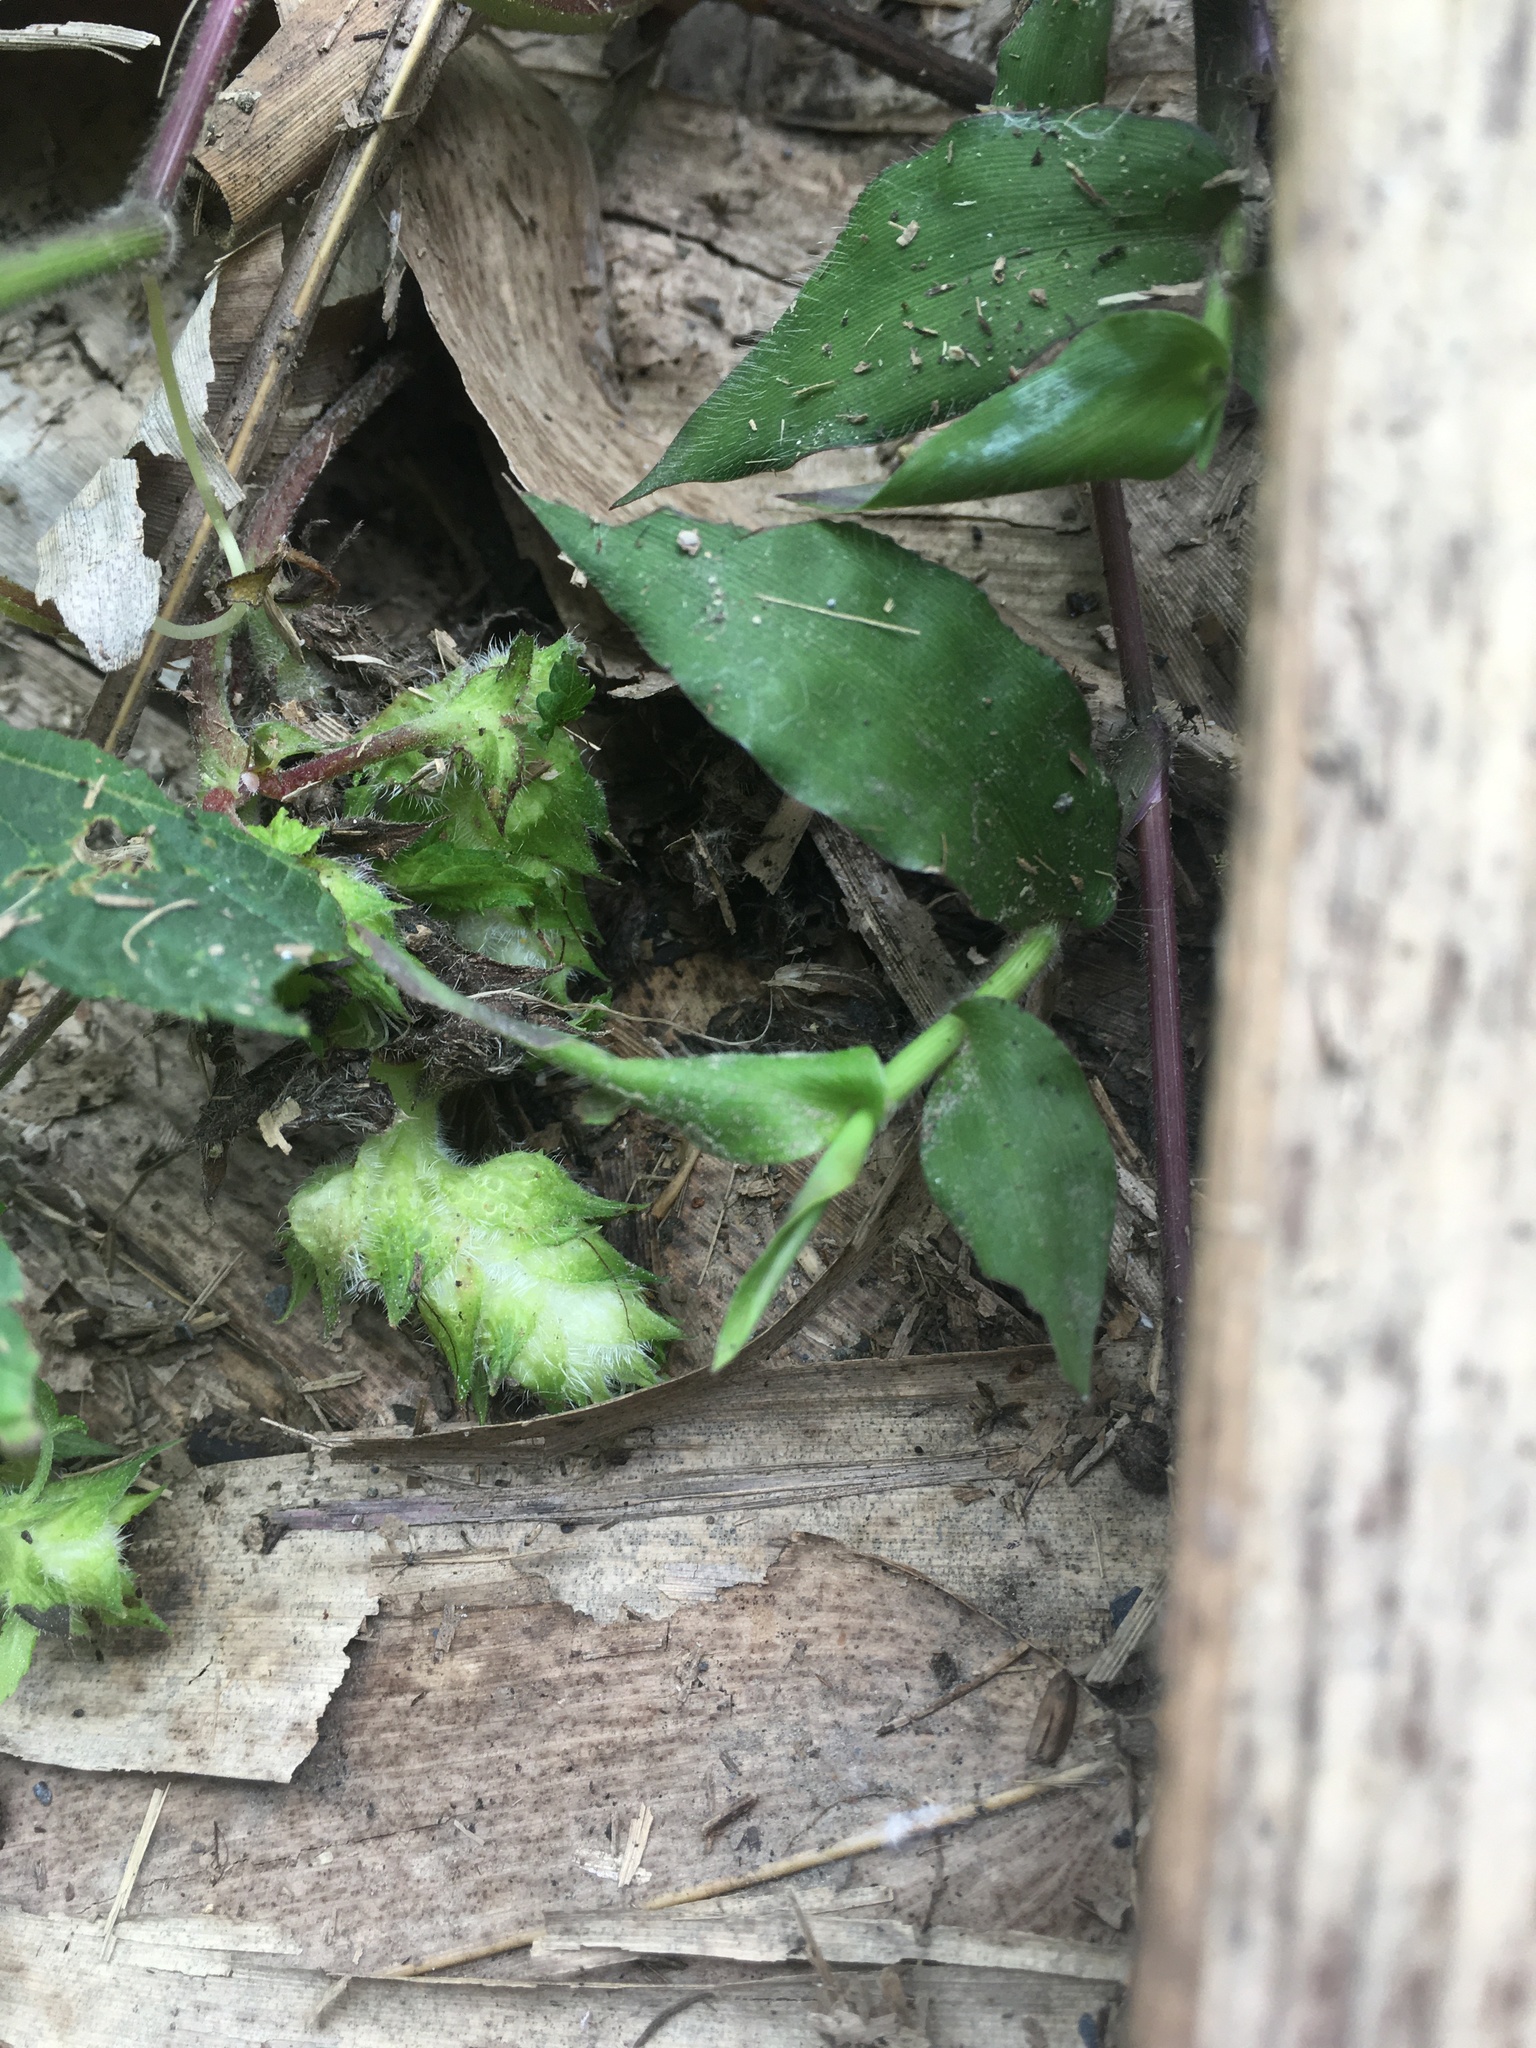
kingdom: Plantae
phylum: Tracheophyta
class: Magnoliopsida
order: Rosales
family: Cannabaceae
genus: Humulus
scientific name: Humulus scandens
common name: Japanese hop
